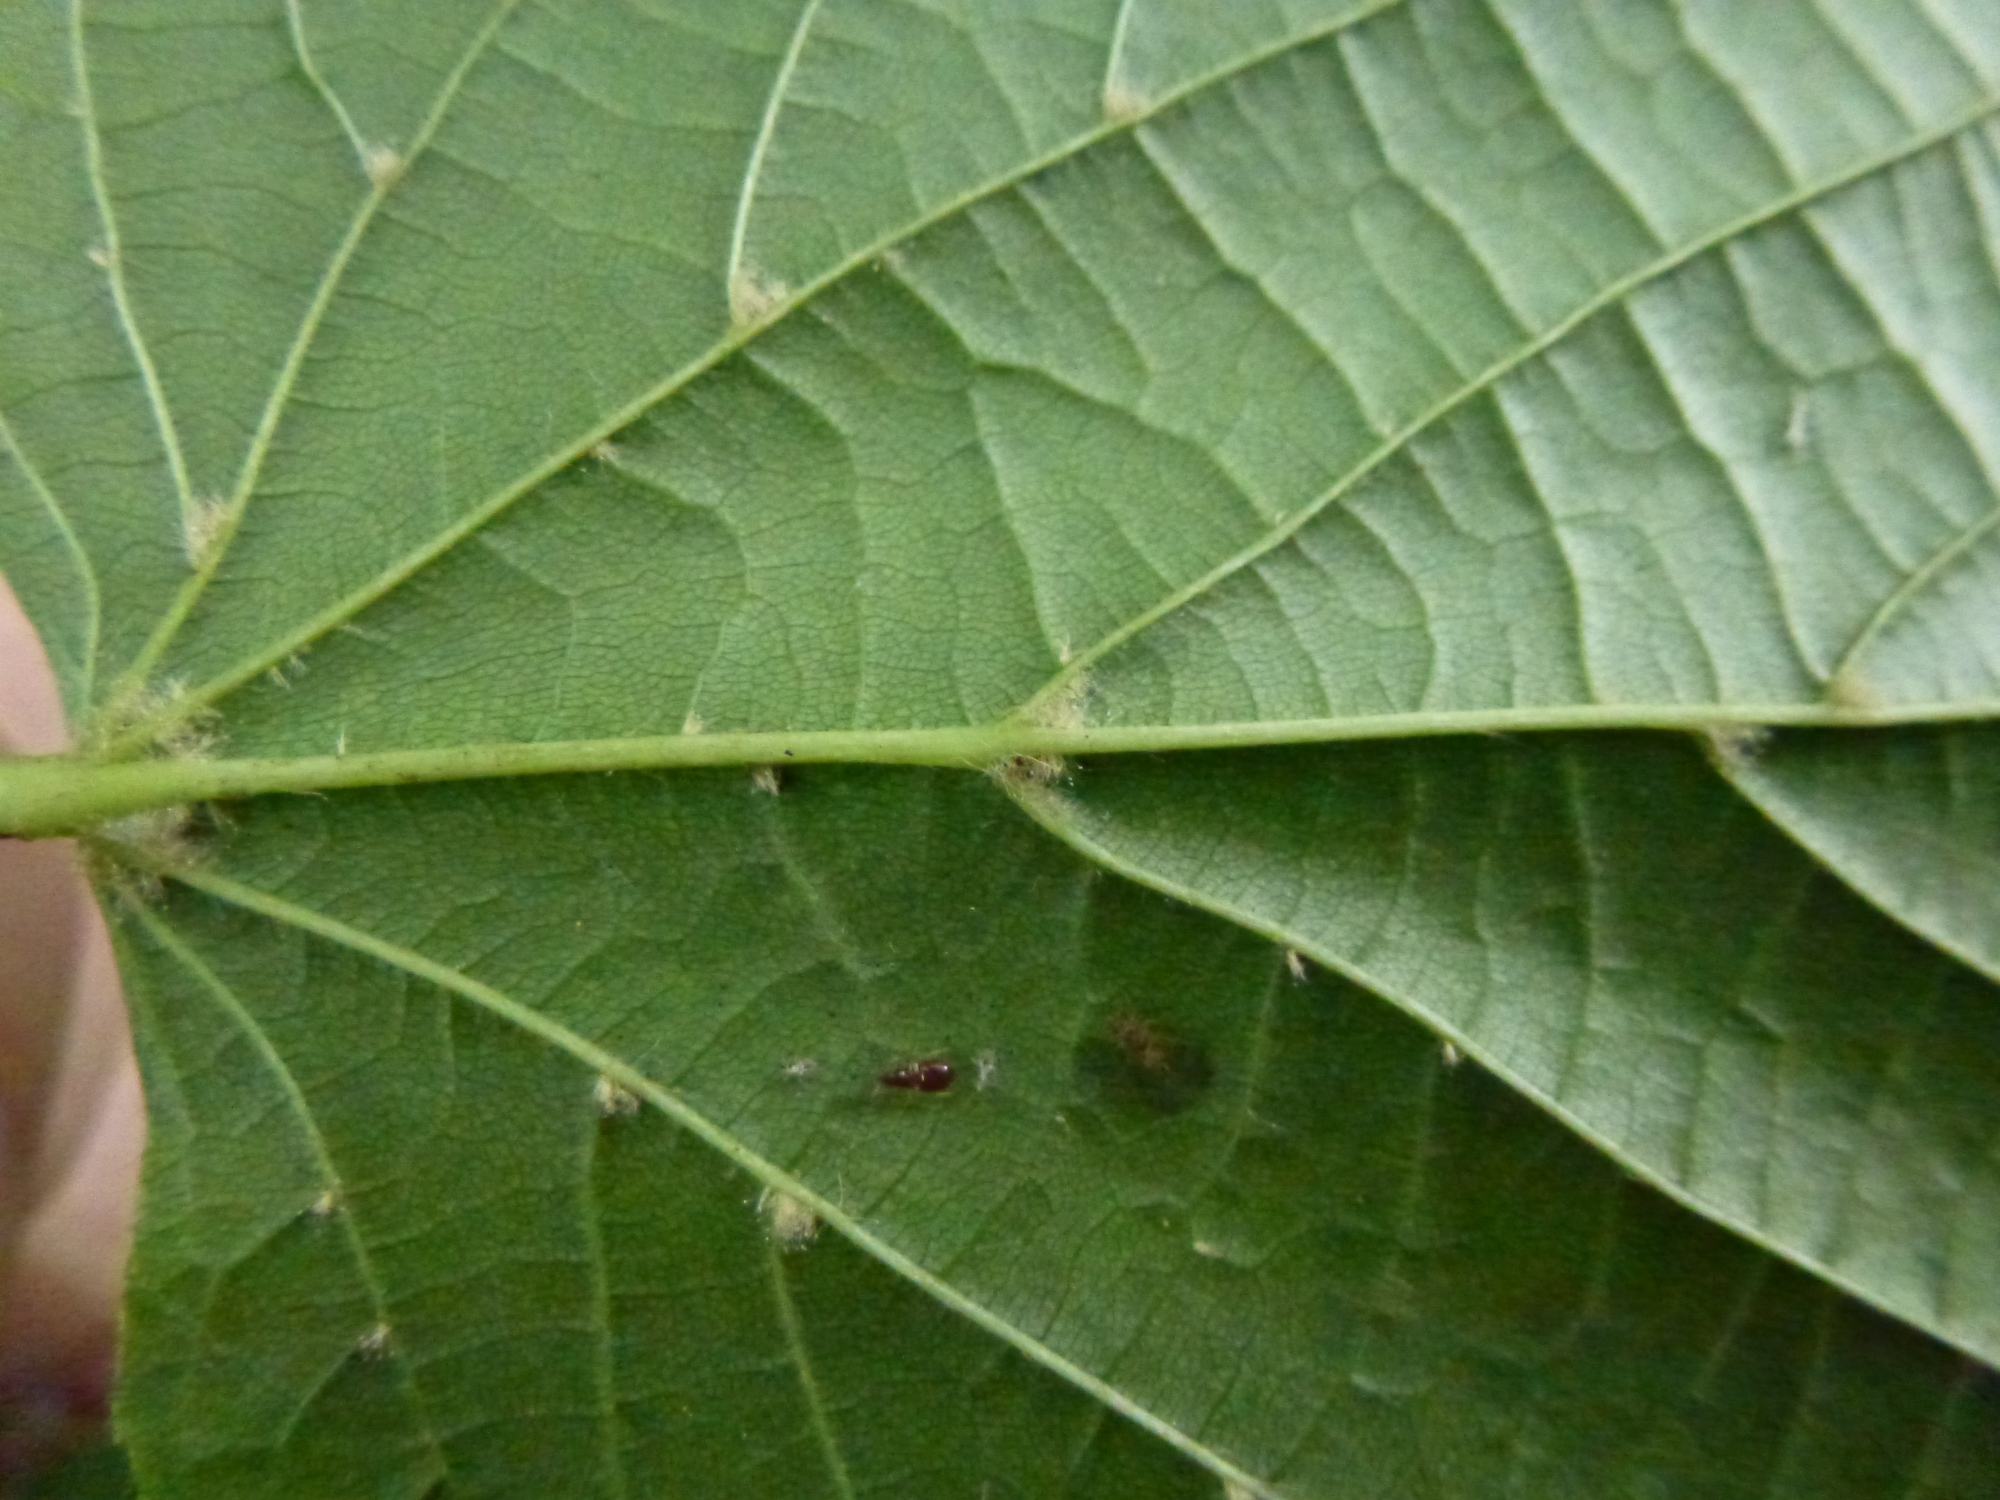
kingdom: Animalia
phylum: Arthropoda
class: Arachnida
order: Trombidiformes
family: Eriophyidae
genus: Eriophyes
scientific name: Eriophyes exilis
